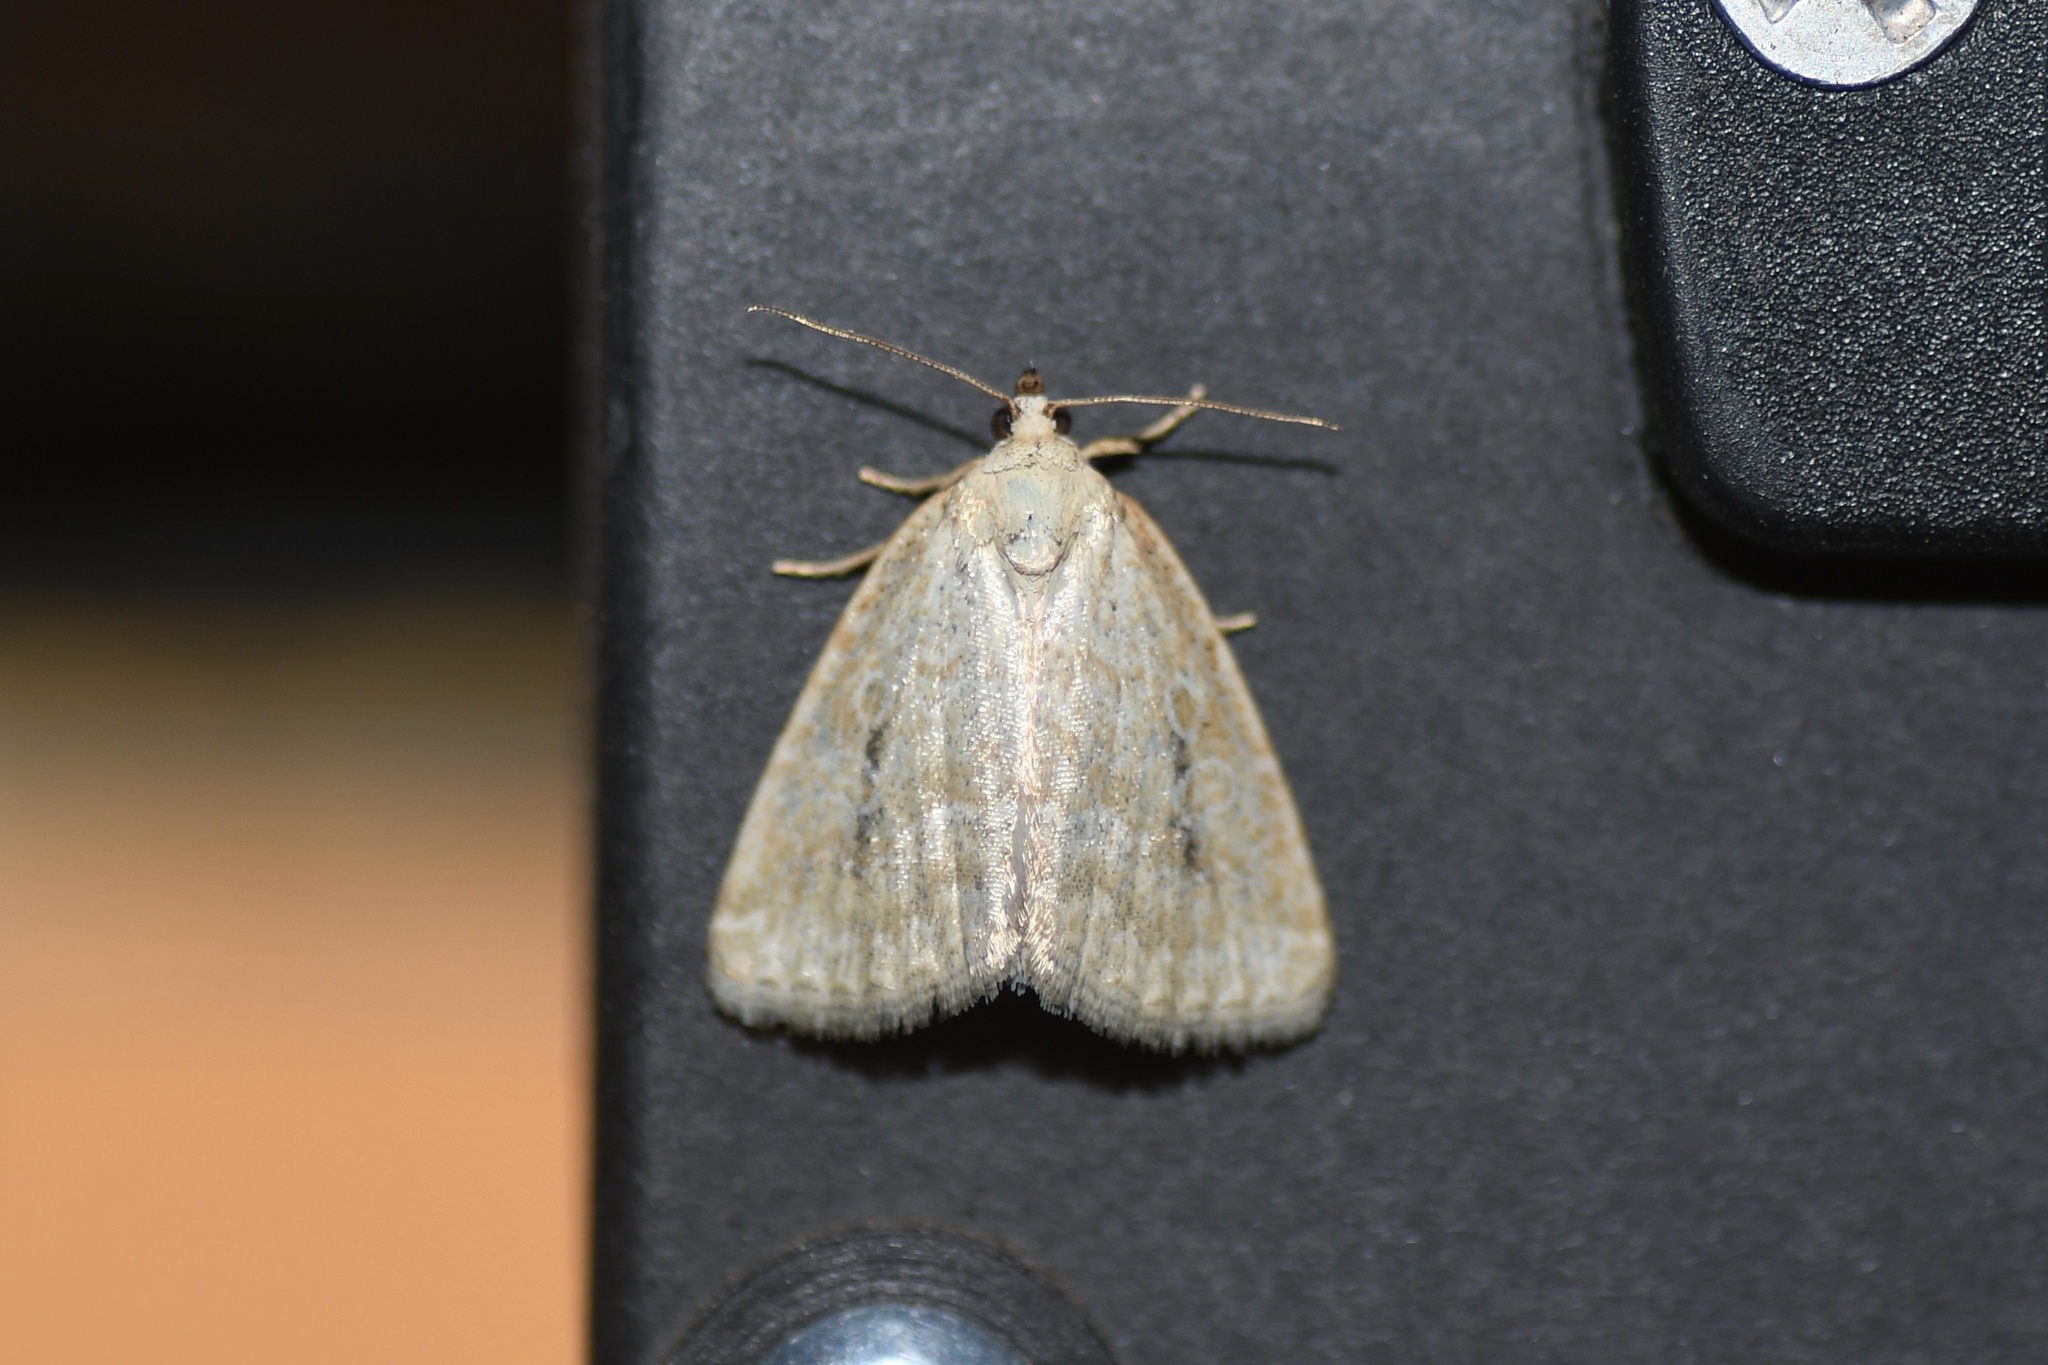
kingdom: Animalia
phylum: Arthropoda
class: Insecta
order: Lepidoptera
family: Noctuidae
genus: Protodeltote
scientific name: Protodeltote albidula
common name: Pale glyph
